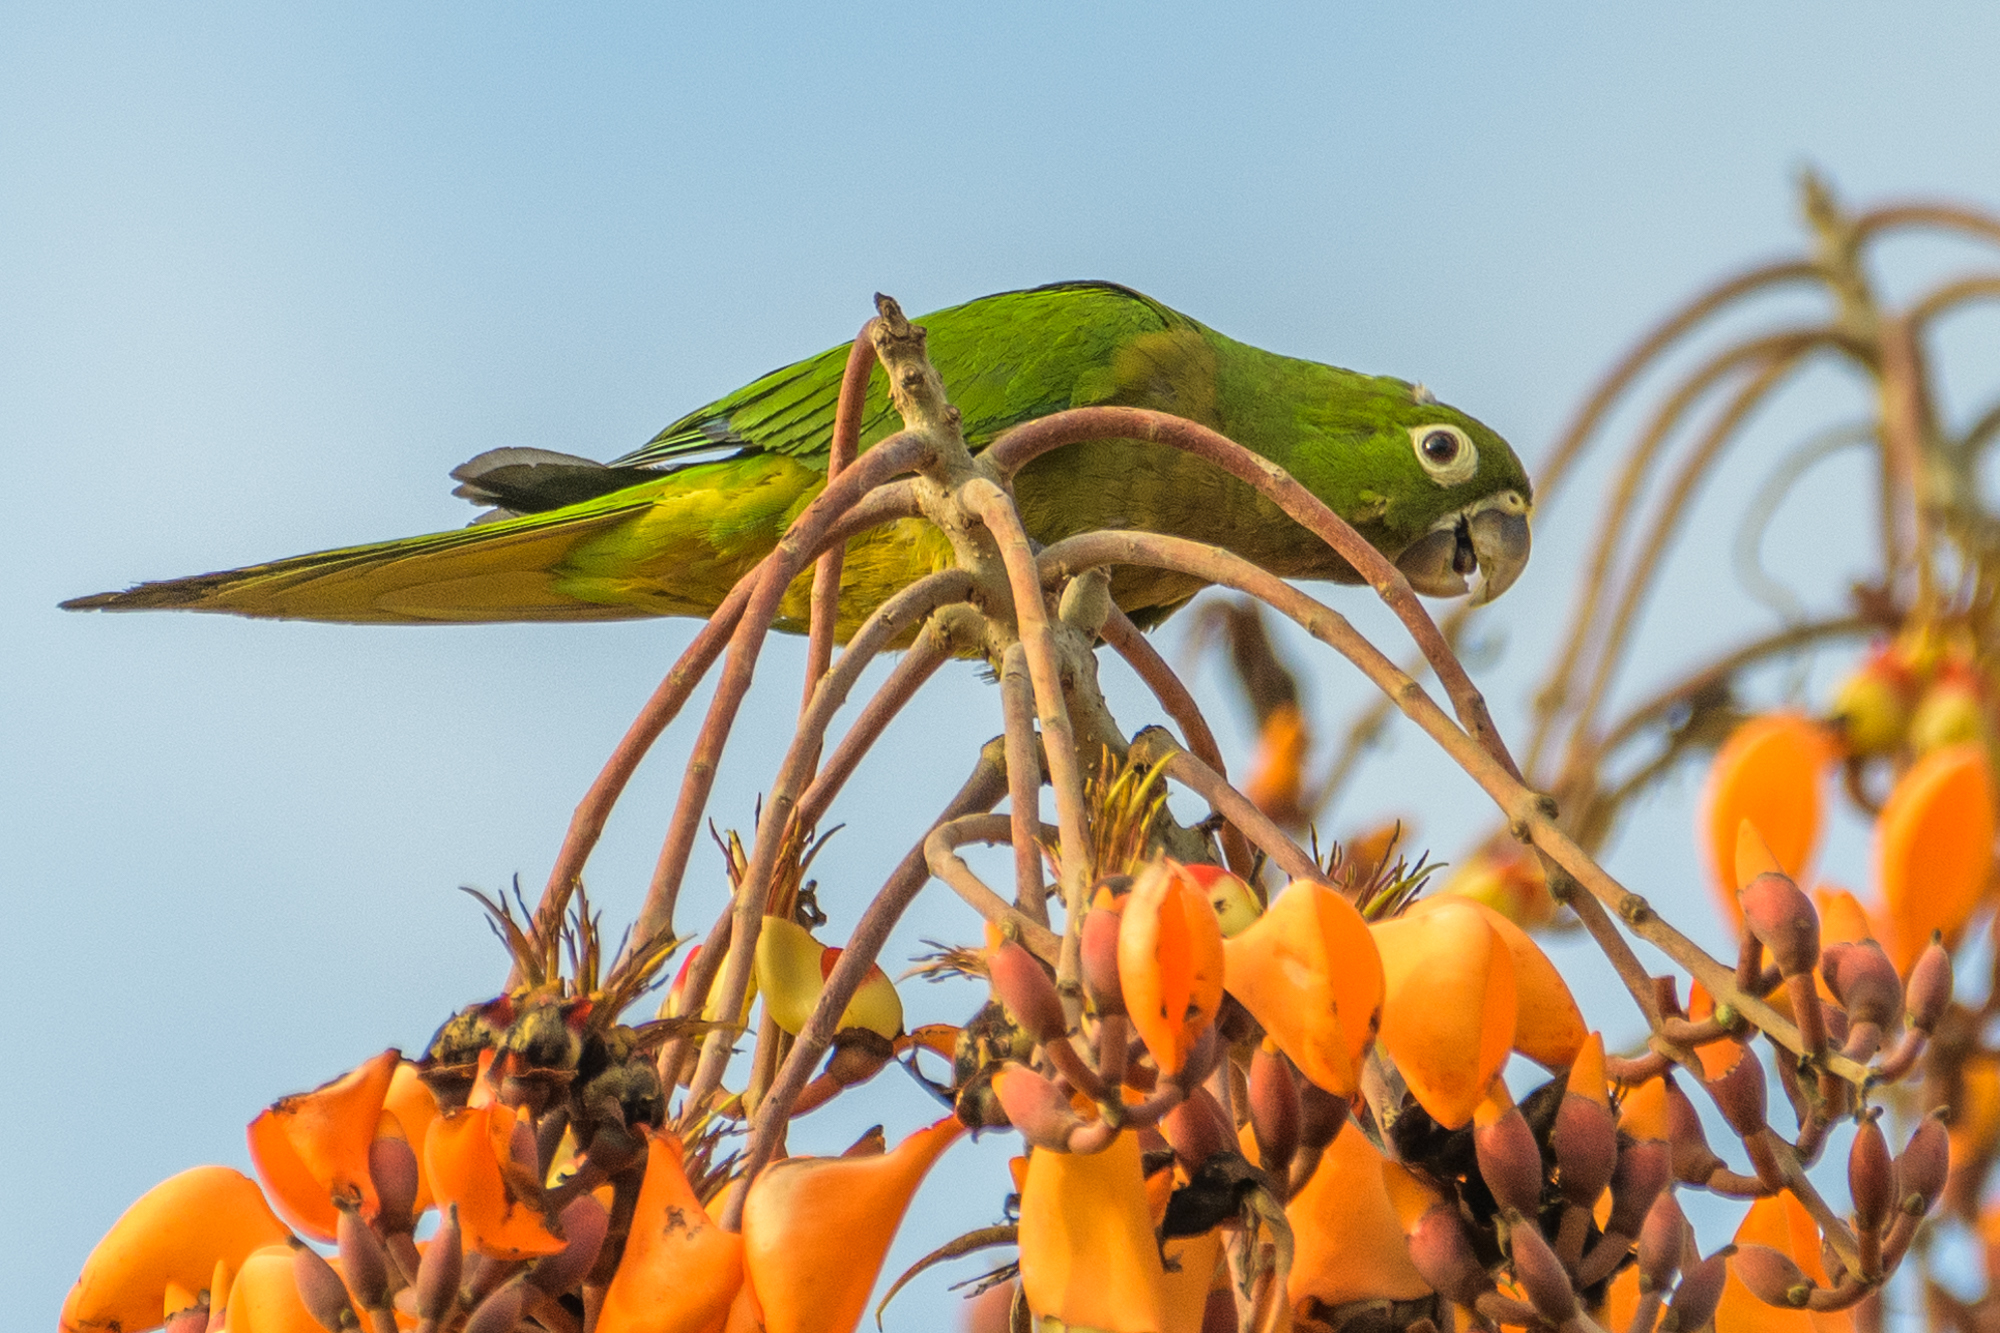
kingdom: Animalia
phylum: Chordata
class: Aves
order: Psittaciformes
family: Psittacidae
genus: Aratinga
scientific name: Aratinga nana
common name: Olive-throated parakeet
